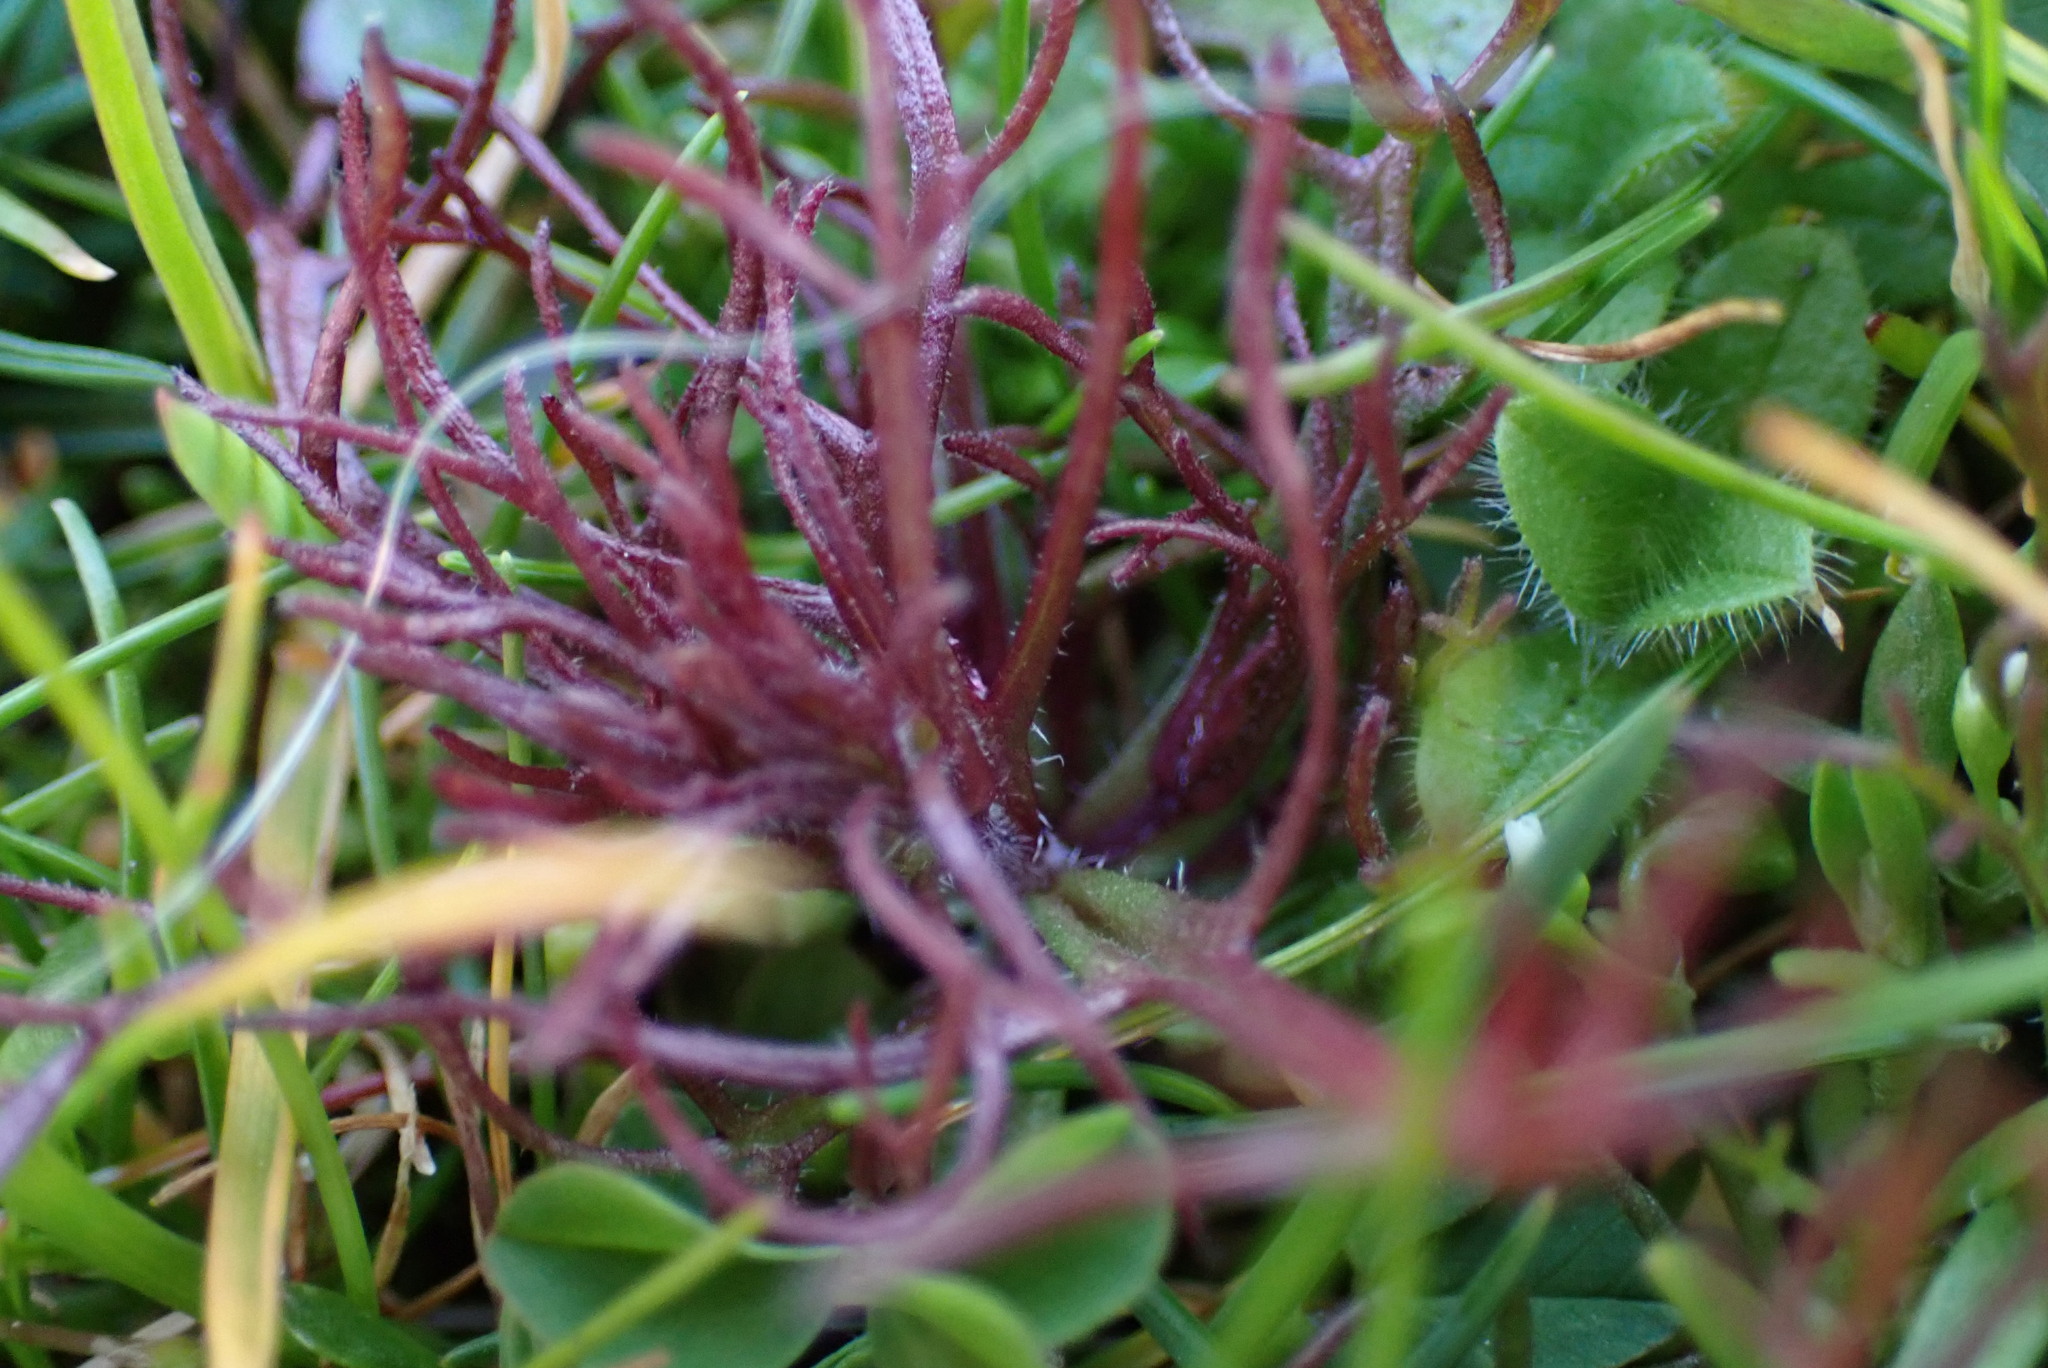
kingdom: Plantae
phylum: Tracheophyta
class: Magnoliopsida
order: Lamiales
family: Orobanchaceae
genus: Triphysaria
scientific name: Triphysaria pusilla
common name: Dwarf false owl-clover
